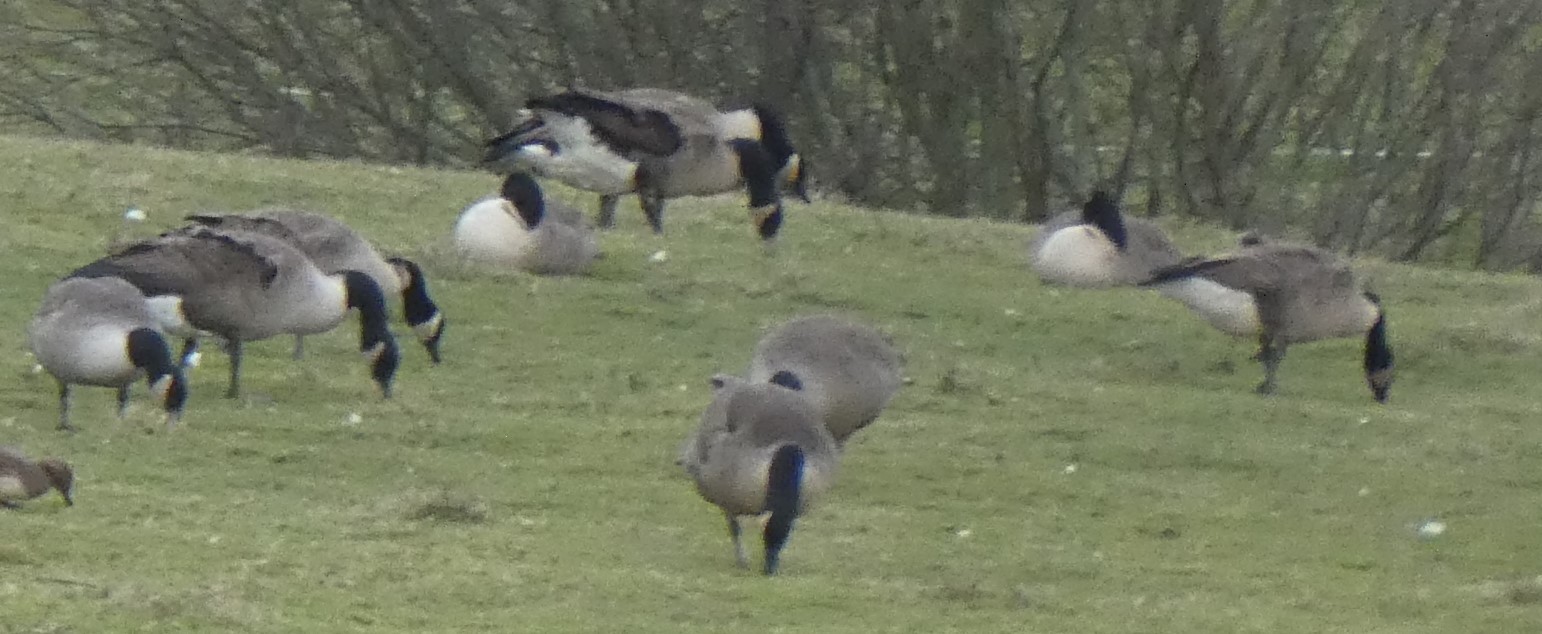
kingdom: Animalia
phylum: Chordata
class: Aves
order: Anseriformes
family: Anatidae
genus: Branta
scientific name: Branta canadensis
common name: Canada goose
